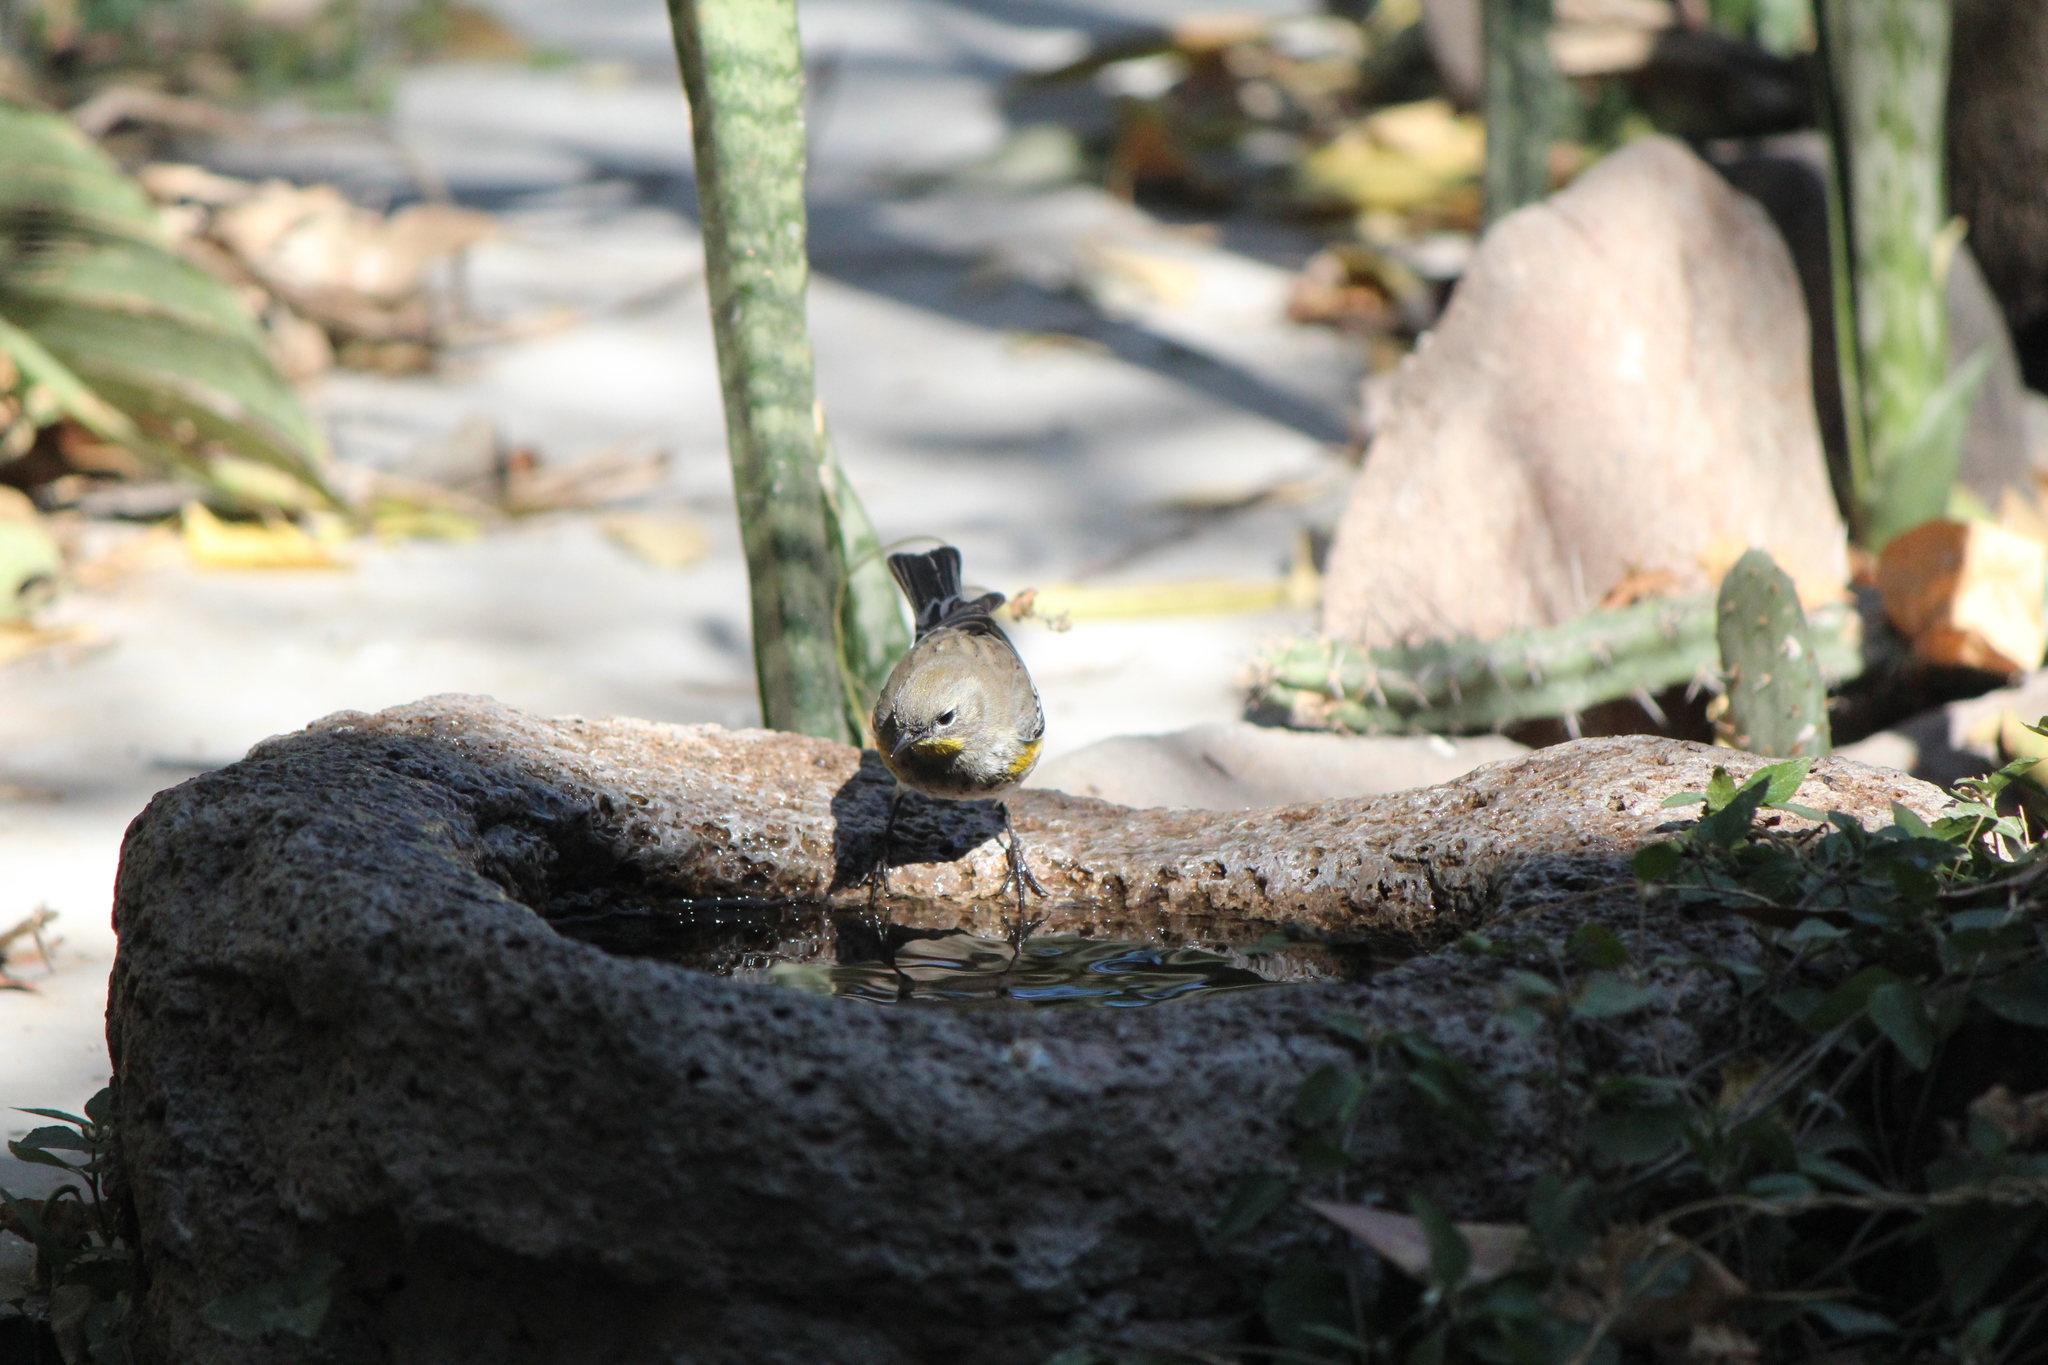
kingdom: Animalia
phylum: Chordata
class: Aves
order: Passeriformes
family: Parulidae
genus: Setophaga
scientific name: Setophaga auduboni
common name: Audubon's warbler
